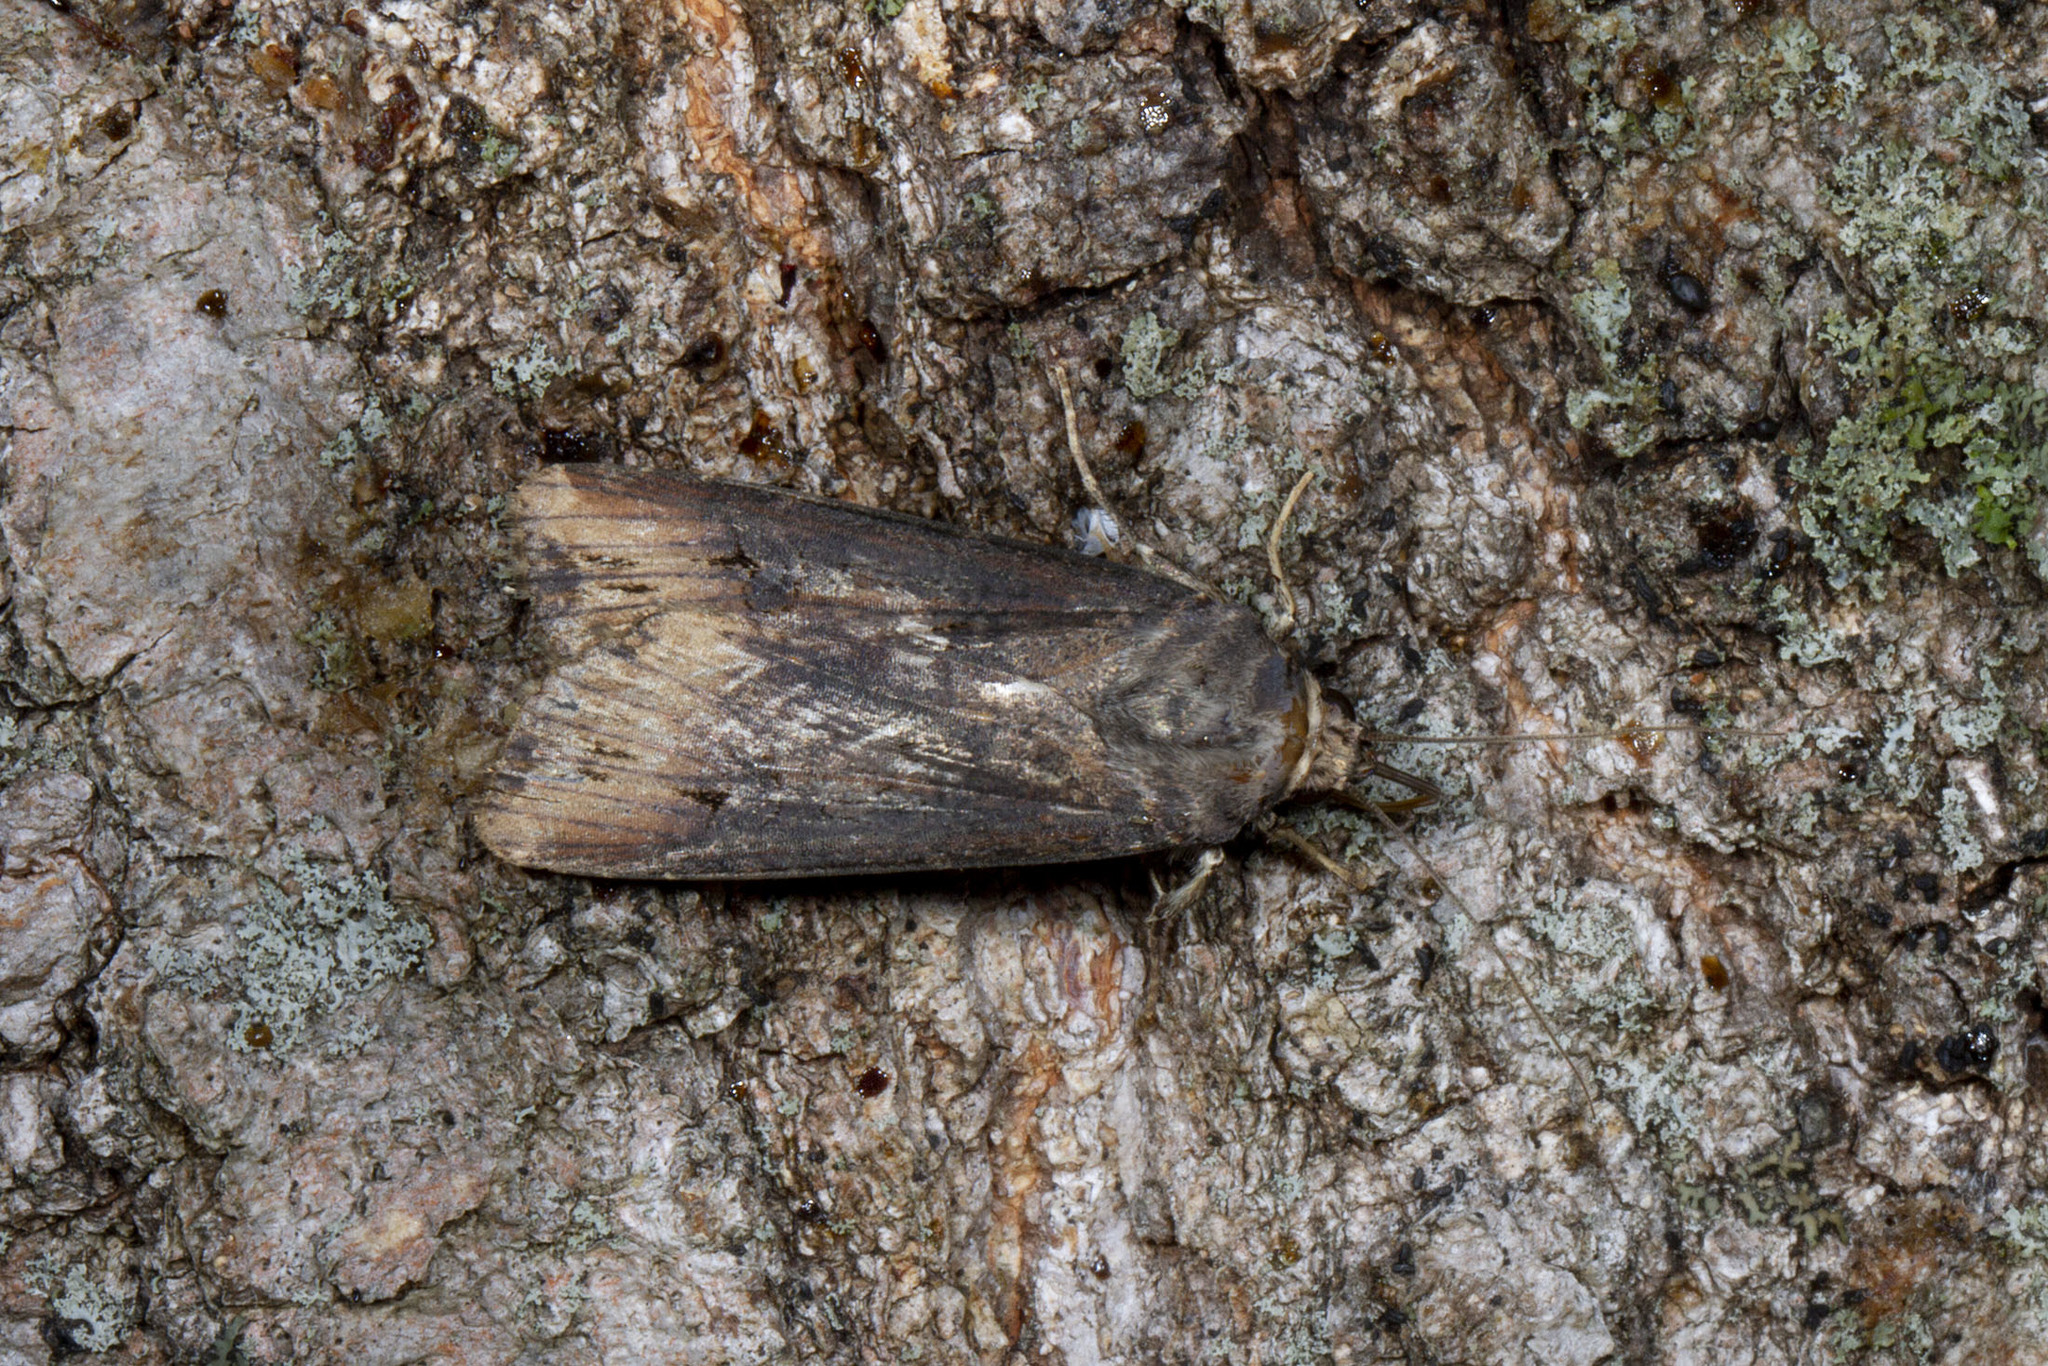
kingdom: Animalia
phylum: Arthropoda
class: Insecta
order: Lepidoptera
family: Noctuidae
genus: Agrotis
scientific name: Agrotis ipsilon
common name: Dark sword-grass
